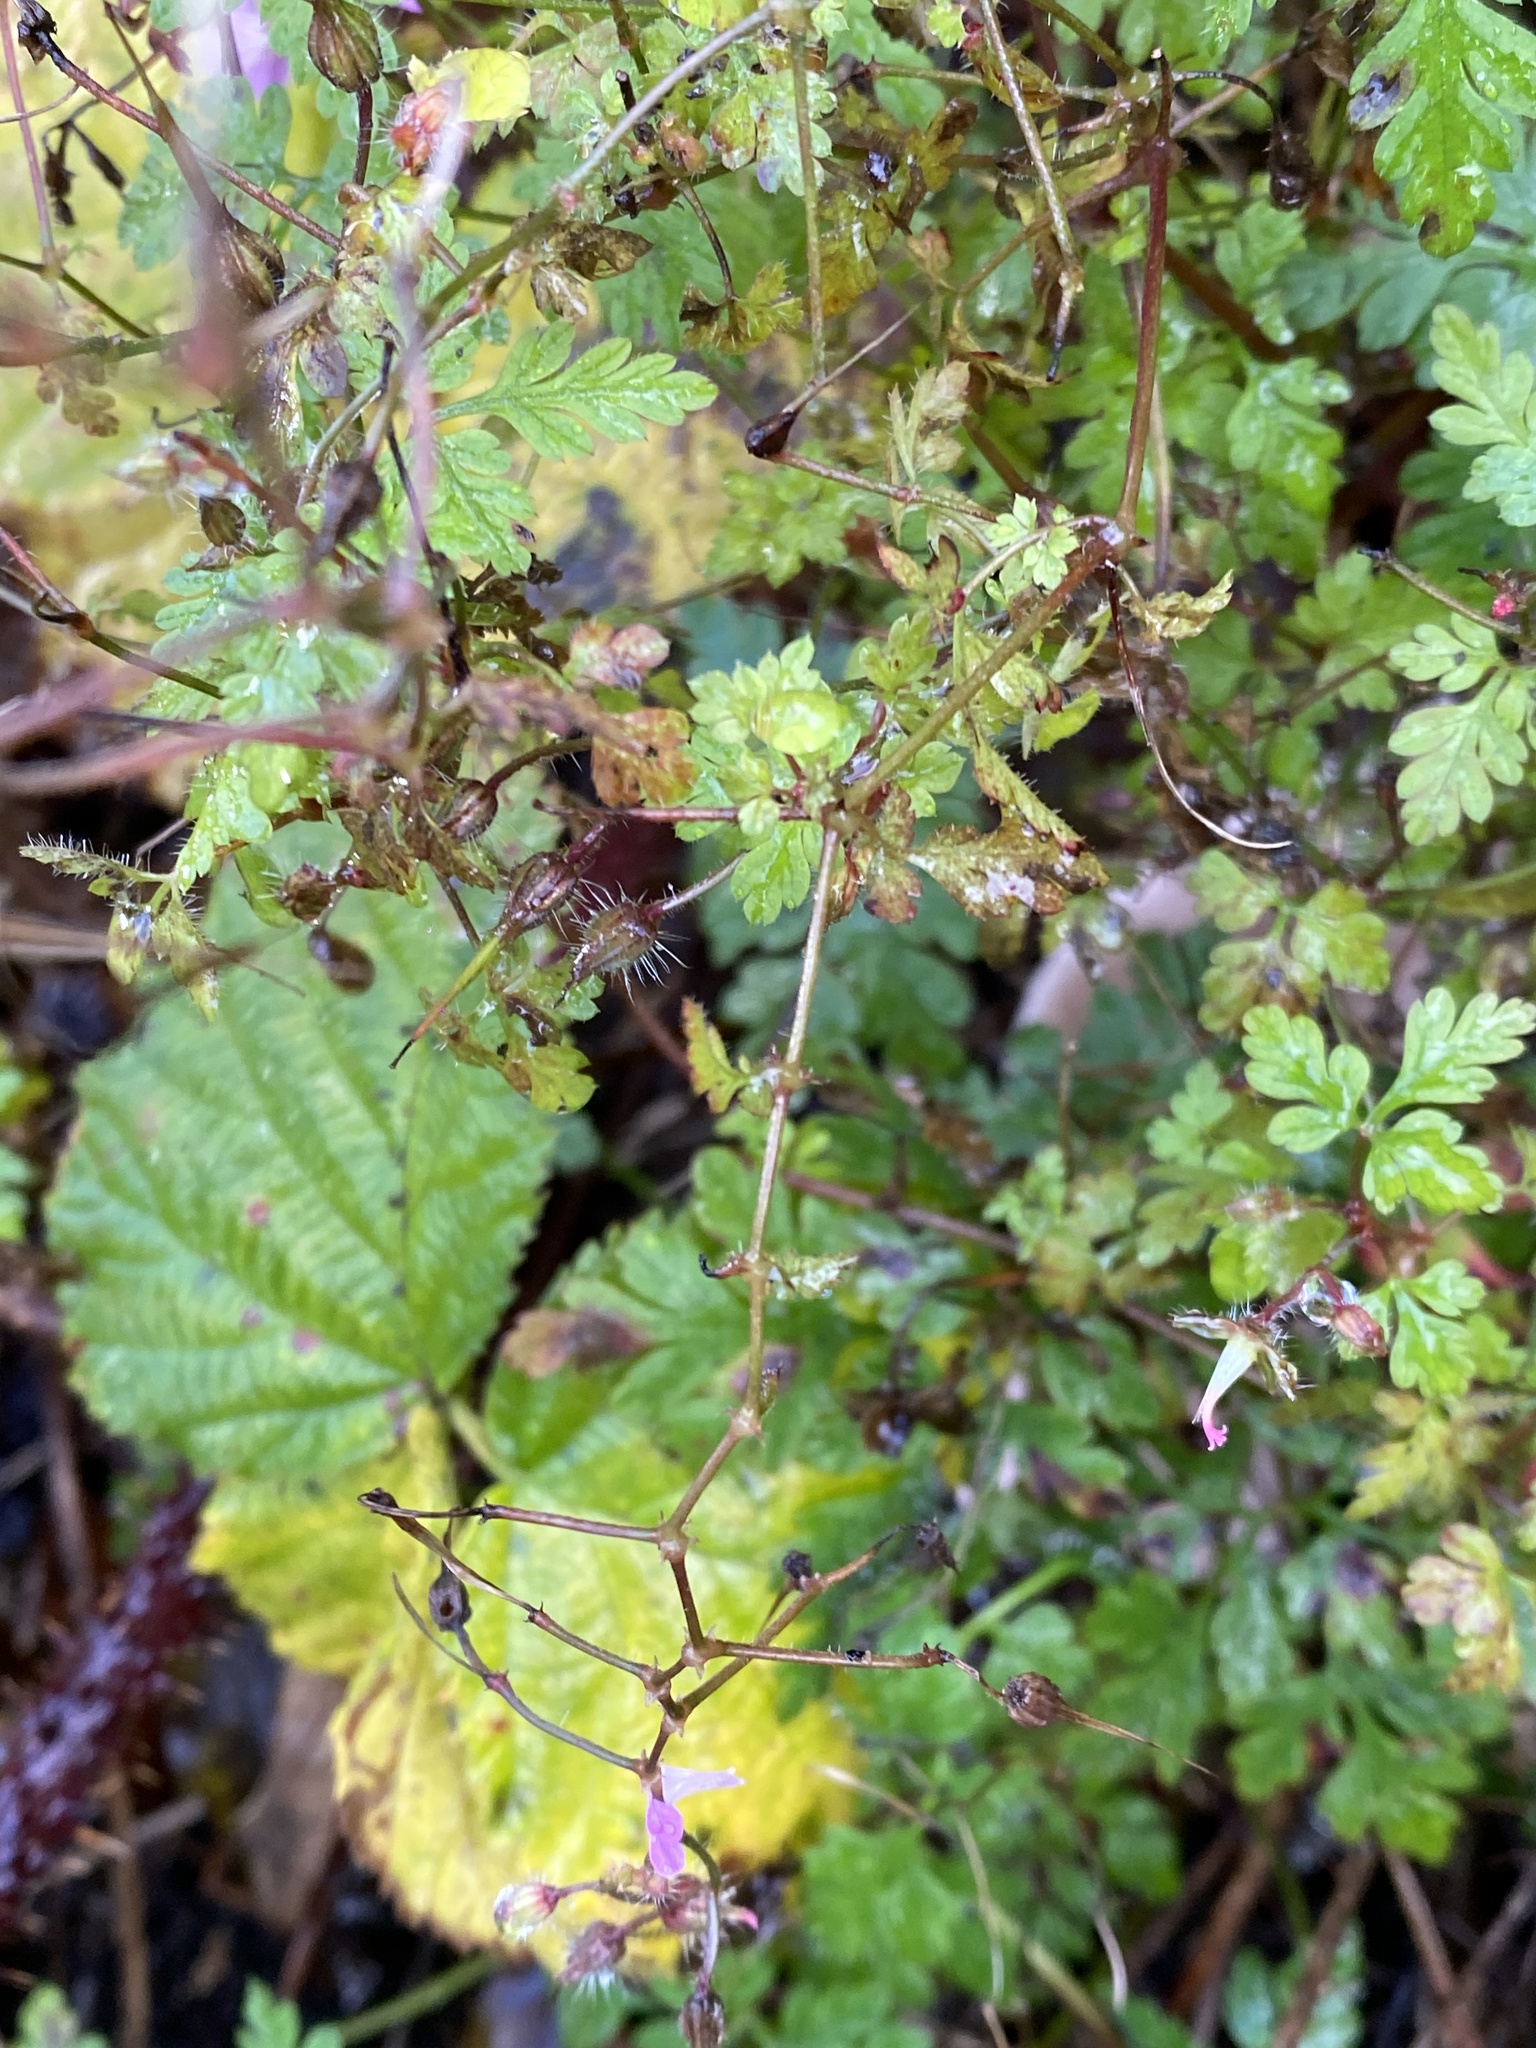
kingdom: Plantae
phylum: Tracheophyta
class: Magnoliopsida
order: Geraniales
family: Geraniaceae
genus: Geranium
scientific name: Geranium robertianum
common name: Herb-robert
